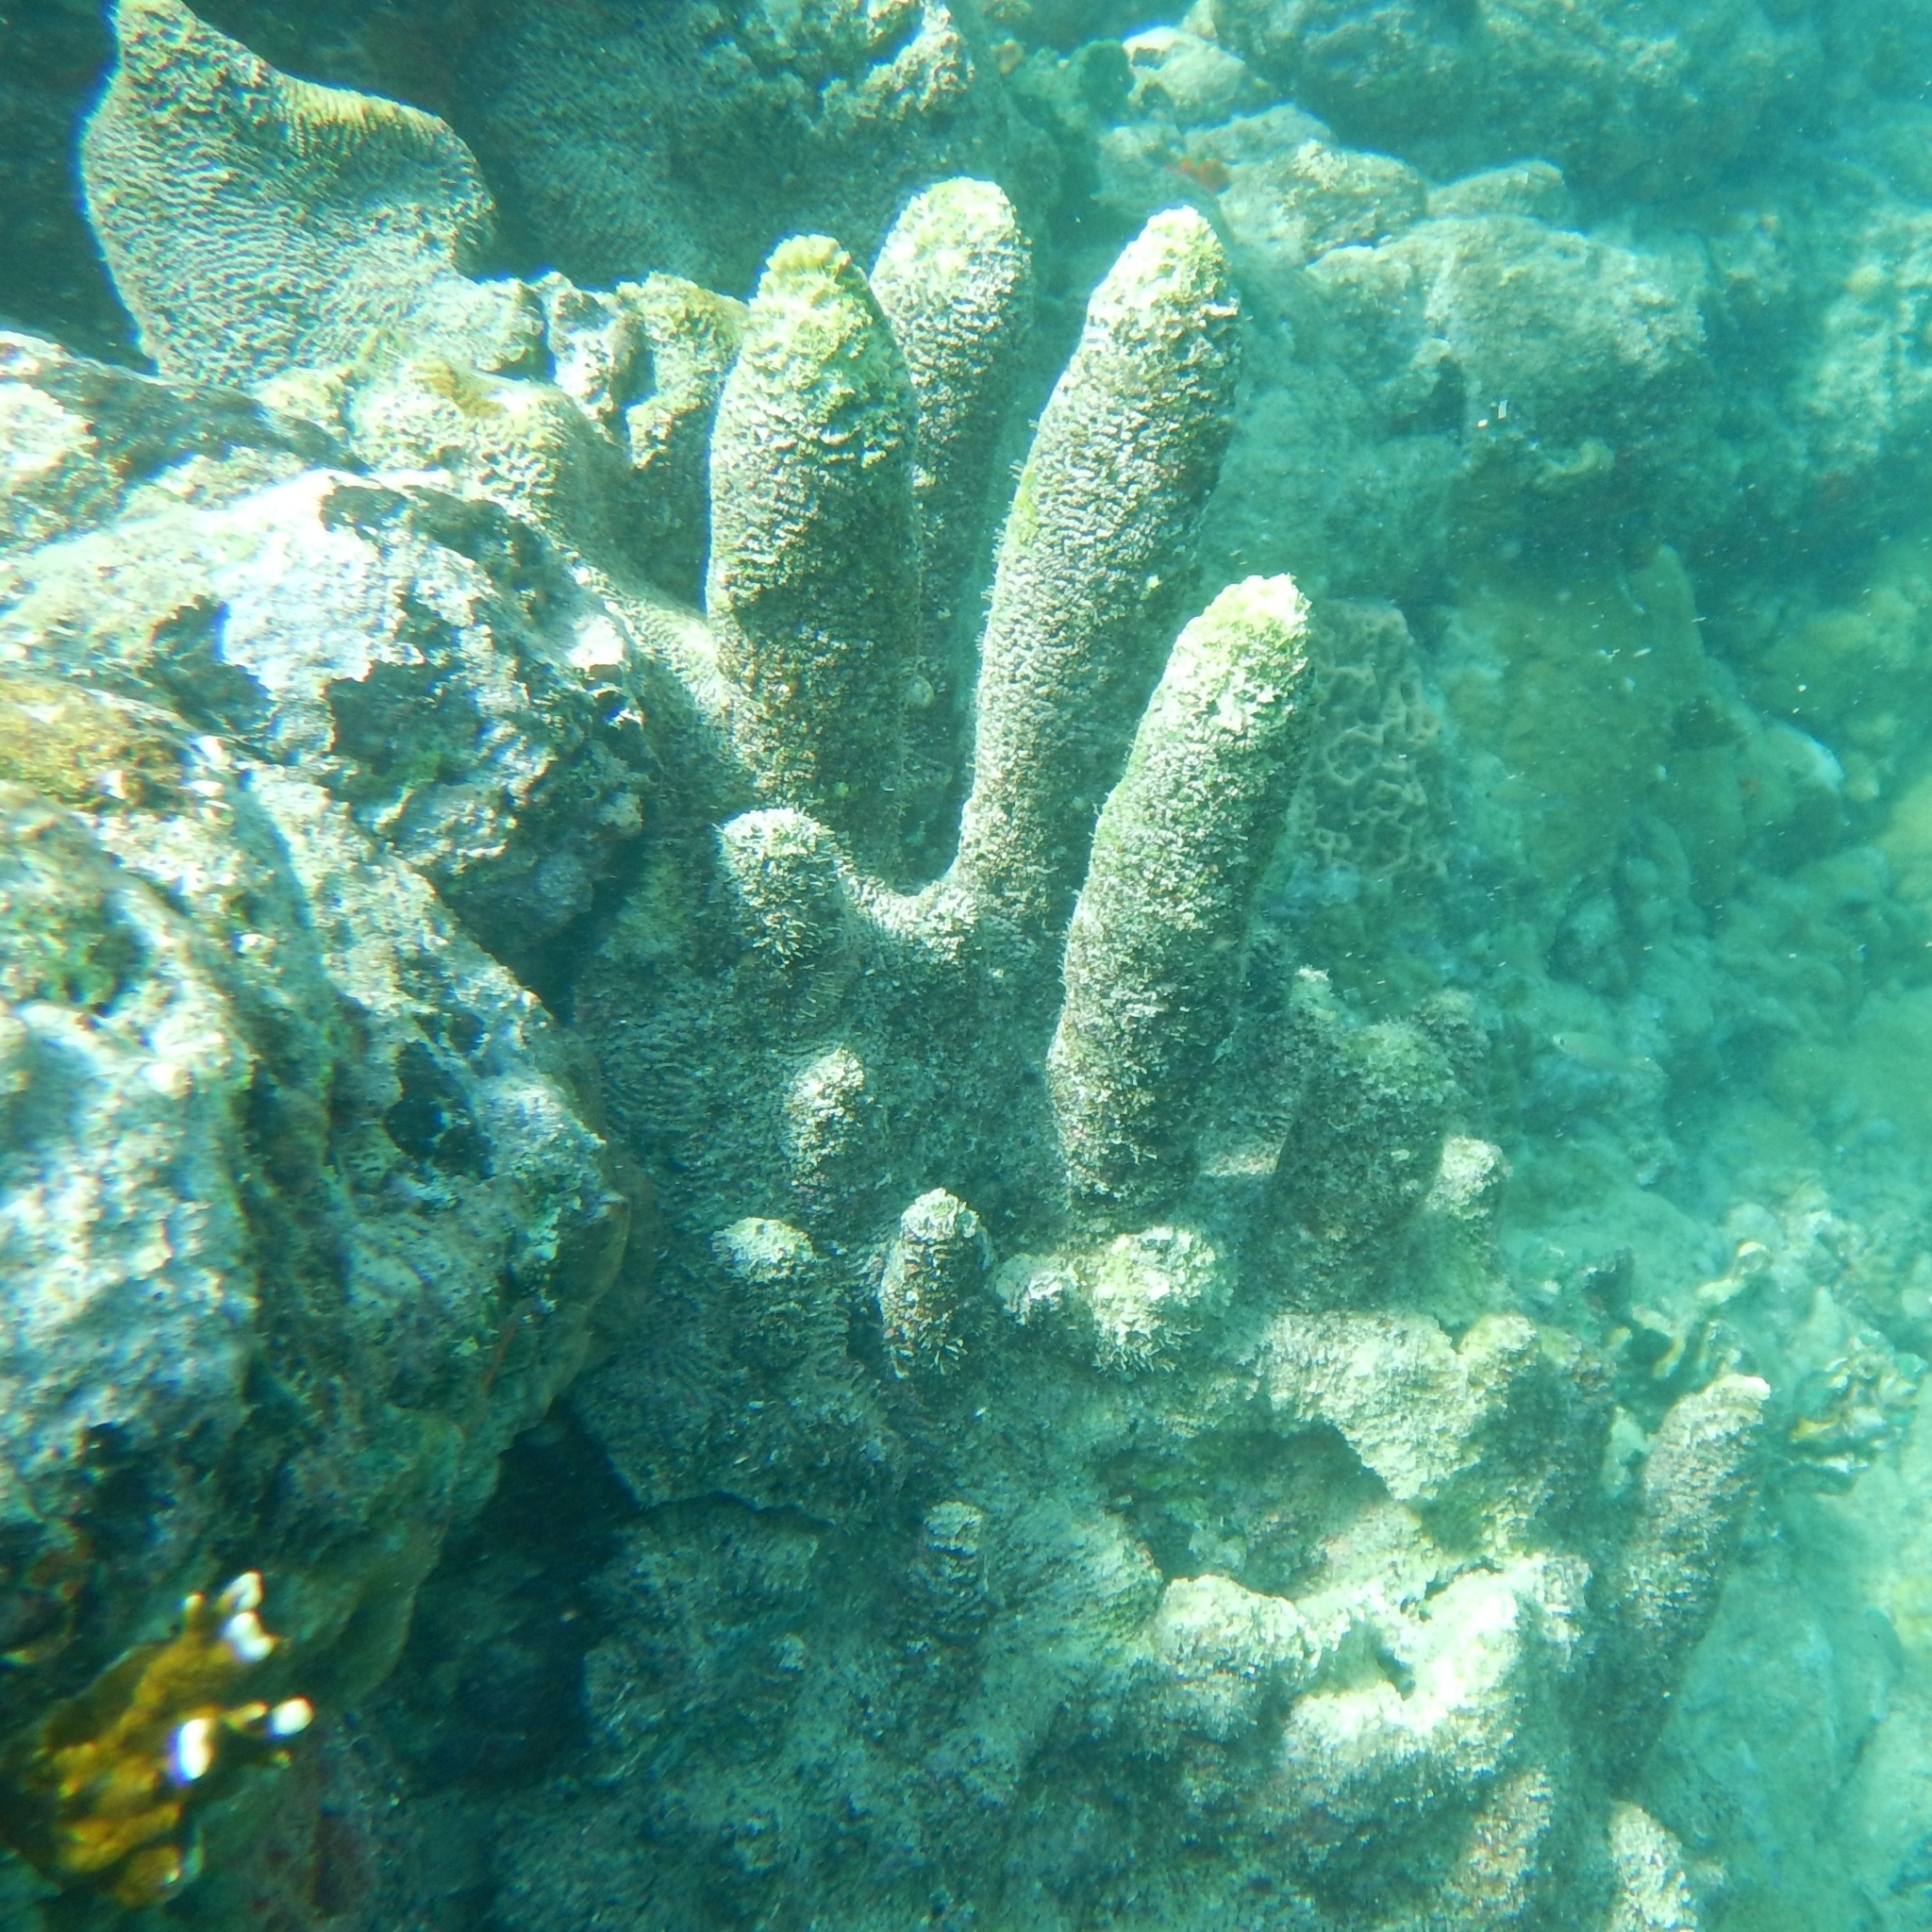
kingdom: Animalia
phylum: Cnidaria
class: Anthozoa
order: Scleractinia
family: Meandrinidae
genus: Dendrogyra
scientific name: Dendrogyra cylindrus
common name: Pillar coral
